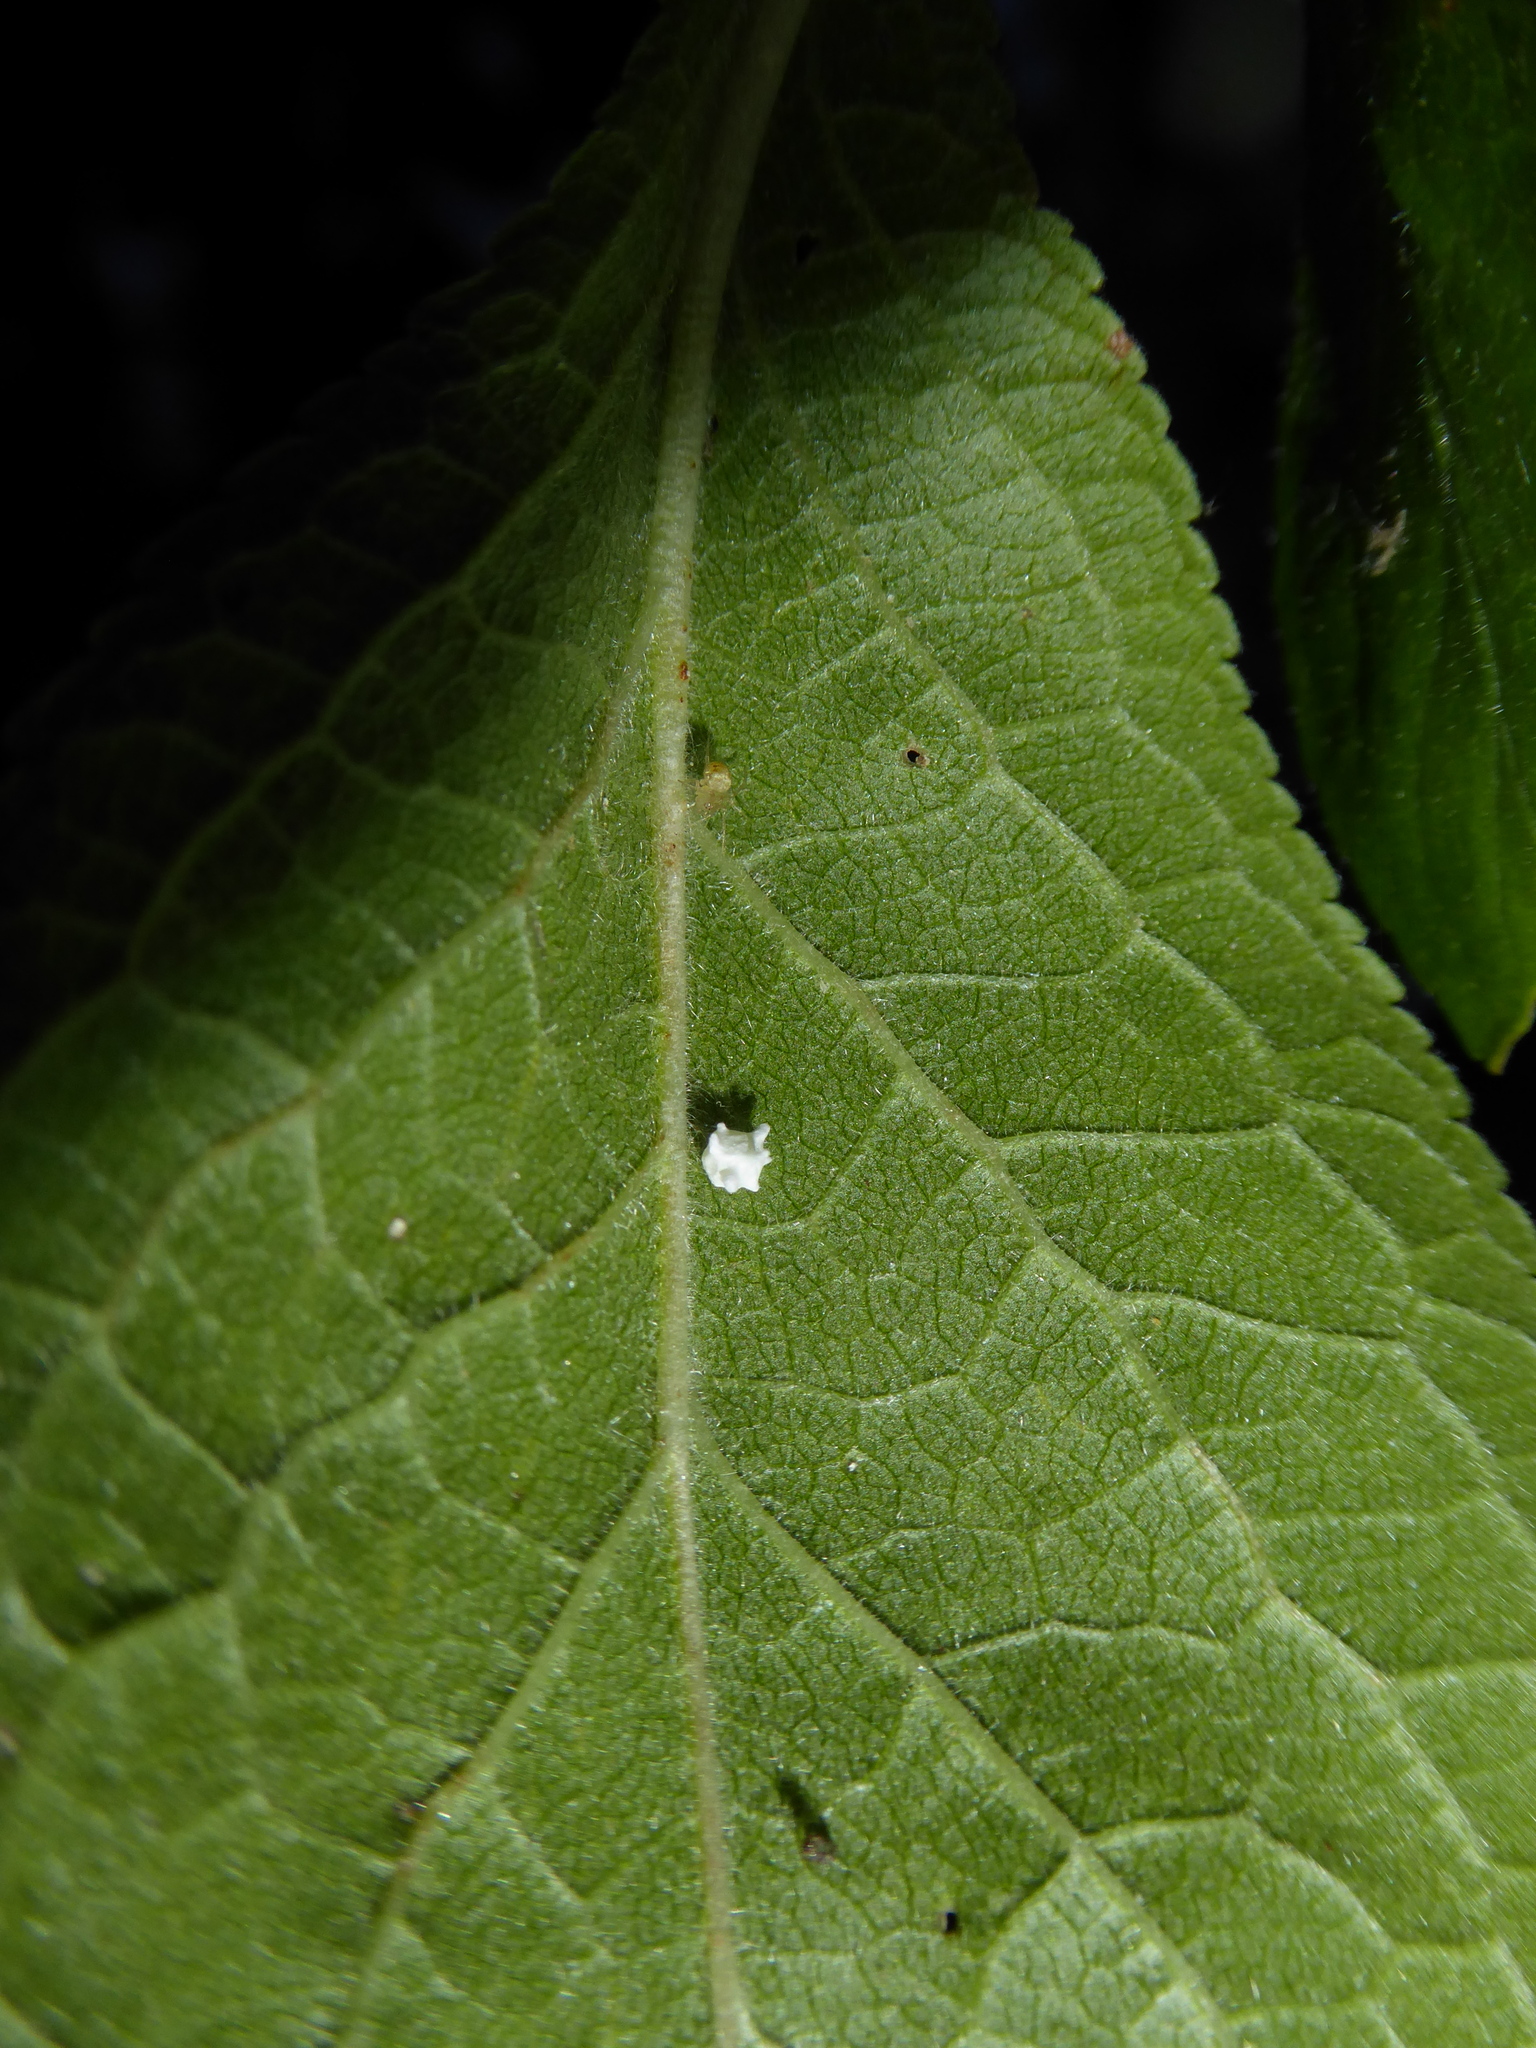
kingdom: Animalia
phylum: Arthropoda
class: Arachnida
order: Araneae
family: Theridiidae
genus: Paidiscura
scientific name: Paidiscura pallens
